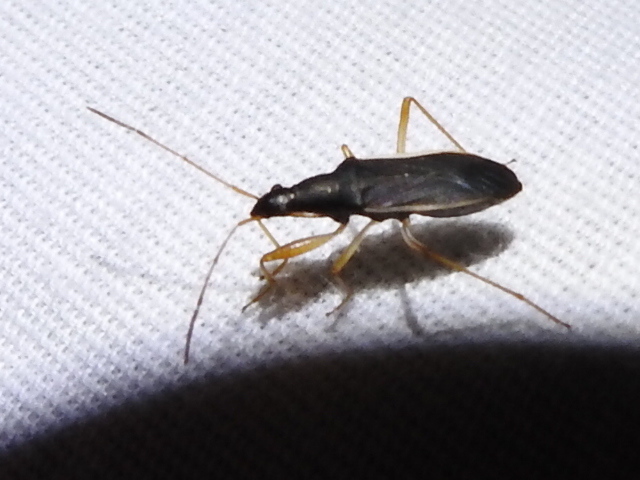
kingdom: Animalia
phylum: Arthropoda
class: Insecta
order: Hemiptera
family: Rhyparochromidae
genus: Cnemodus
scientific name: Cnemodus mavortius
